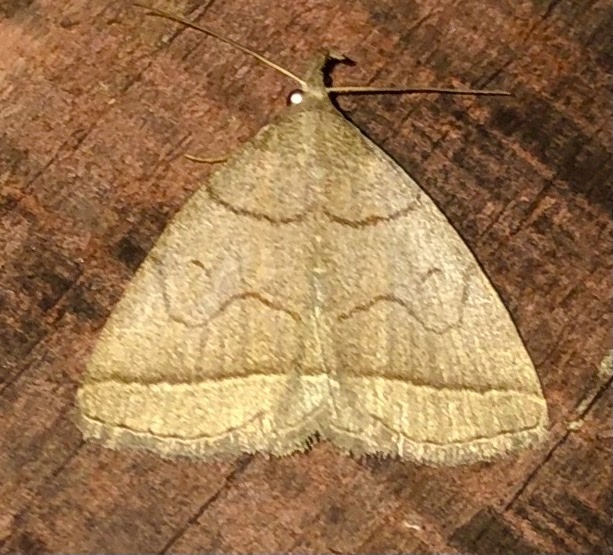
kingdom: Animalia
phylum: Arthropoda
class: Insecta
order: Lepidoptera
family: Erebidae
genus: Zanclognatha
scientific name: Zanclognatha cruralis
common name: Early fan-foot
